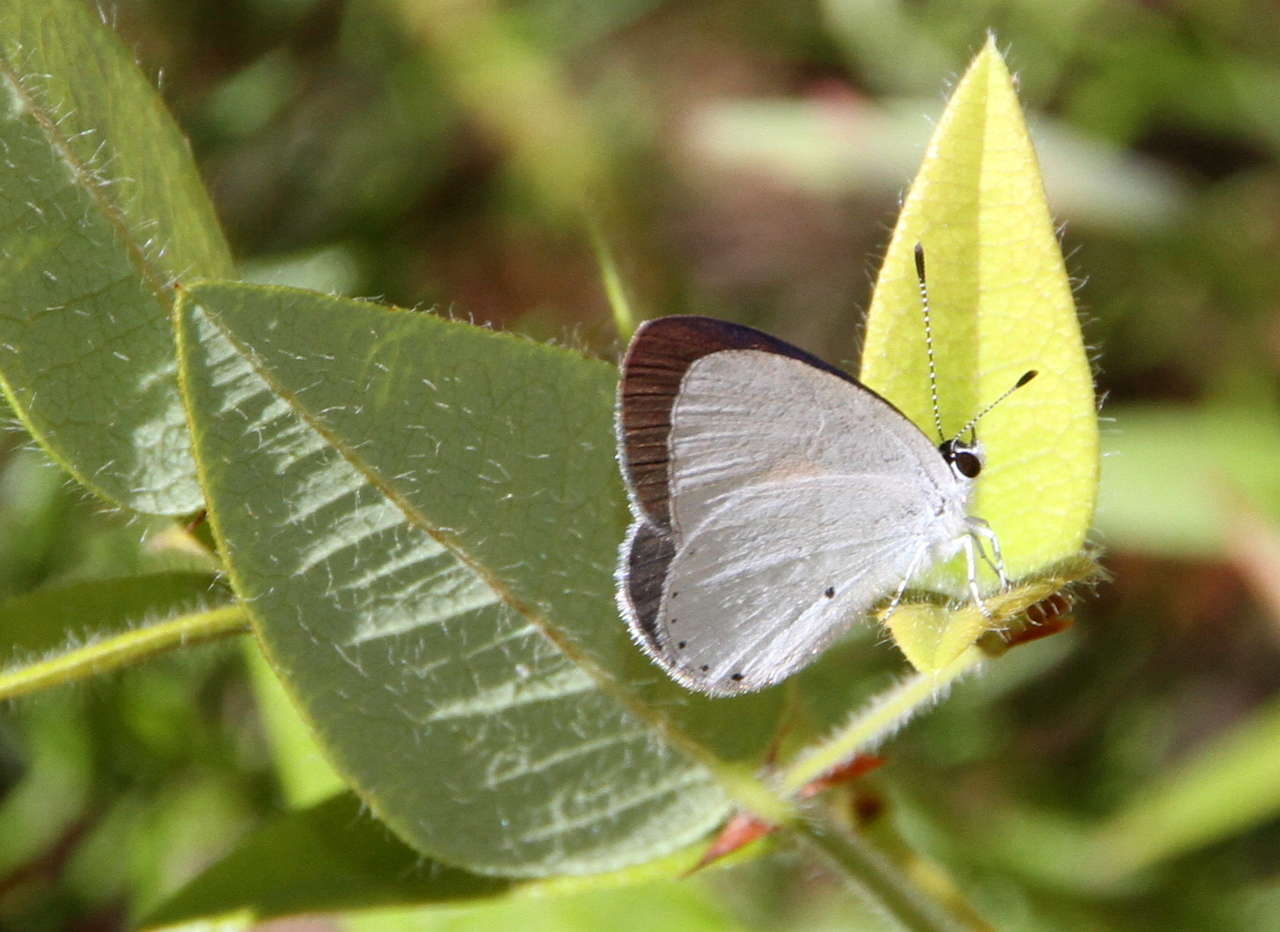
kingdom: Animalia
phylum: Arthropoda
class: Insecta
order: Lepidoptera
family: Lycaenidae
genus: Candalides
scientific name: Candalides xanthospilos
